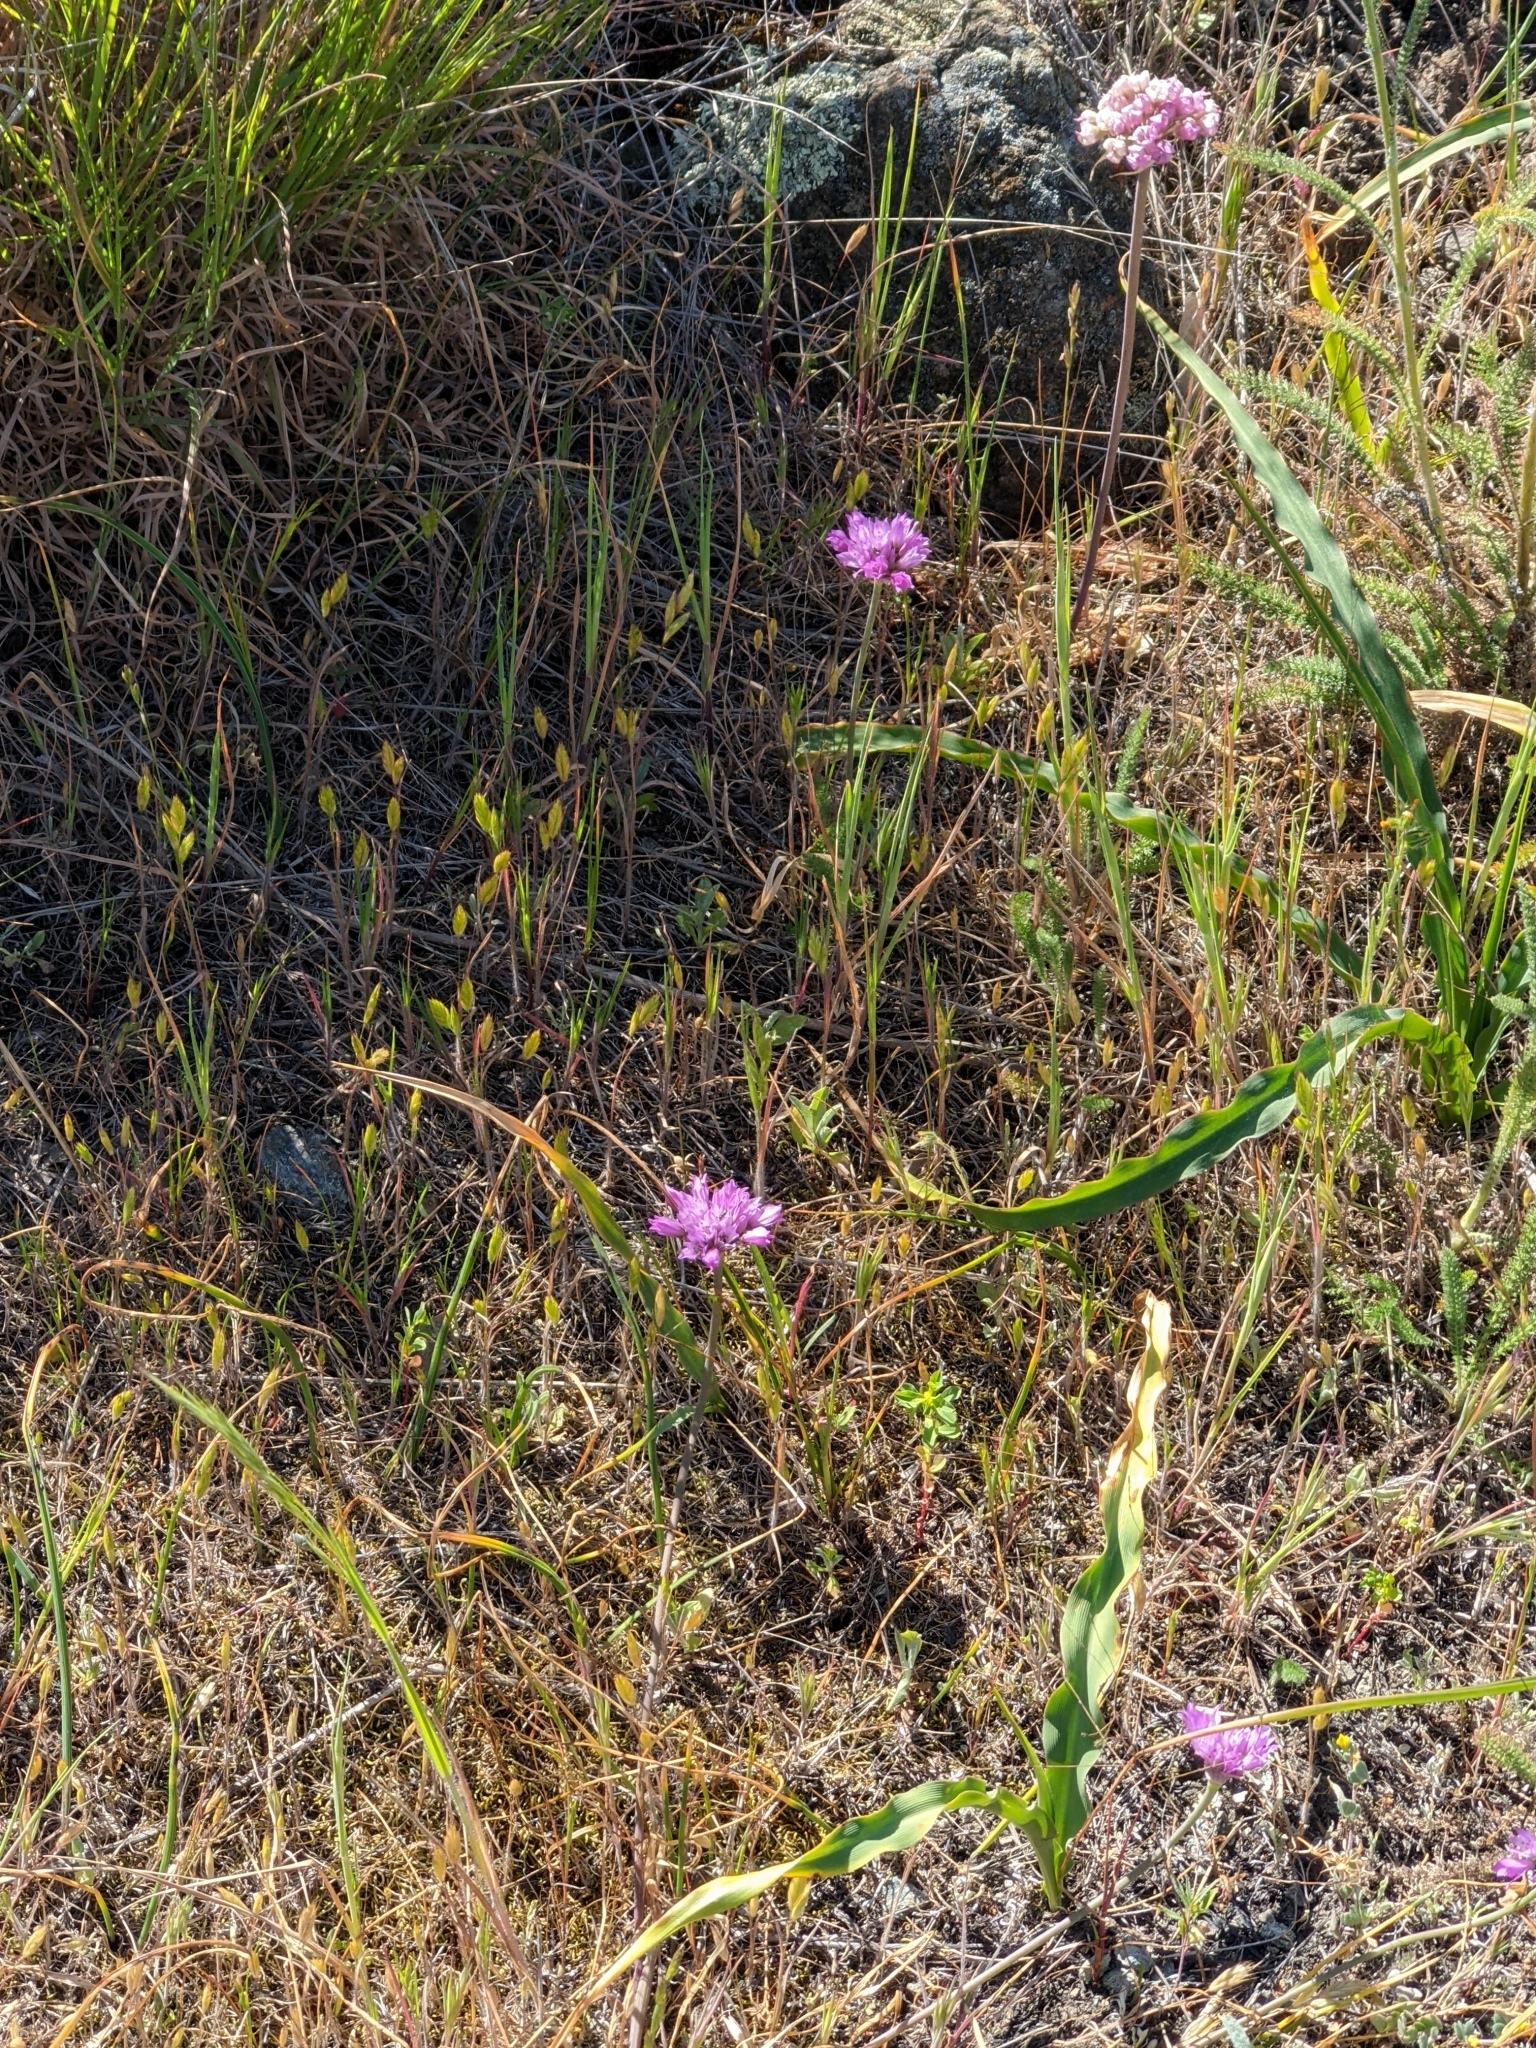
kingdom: Plantae
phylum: Tracheophyta
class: Liliopsida
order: Asparagales
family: Amaryllidaceae
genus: Allium
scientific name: Allium serra
